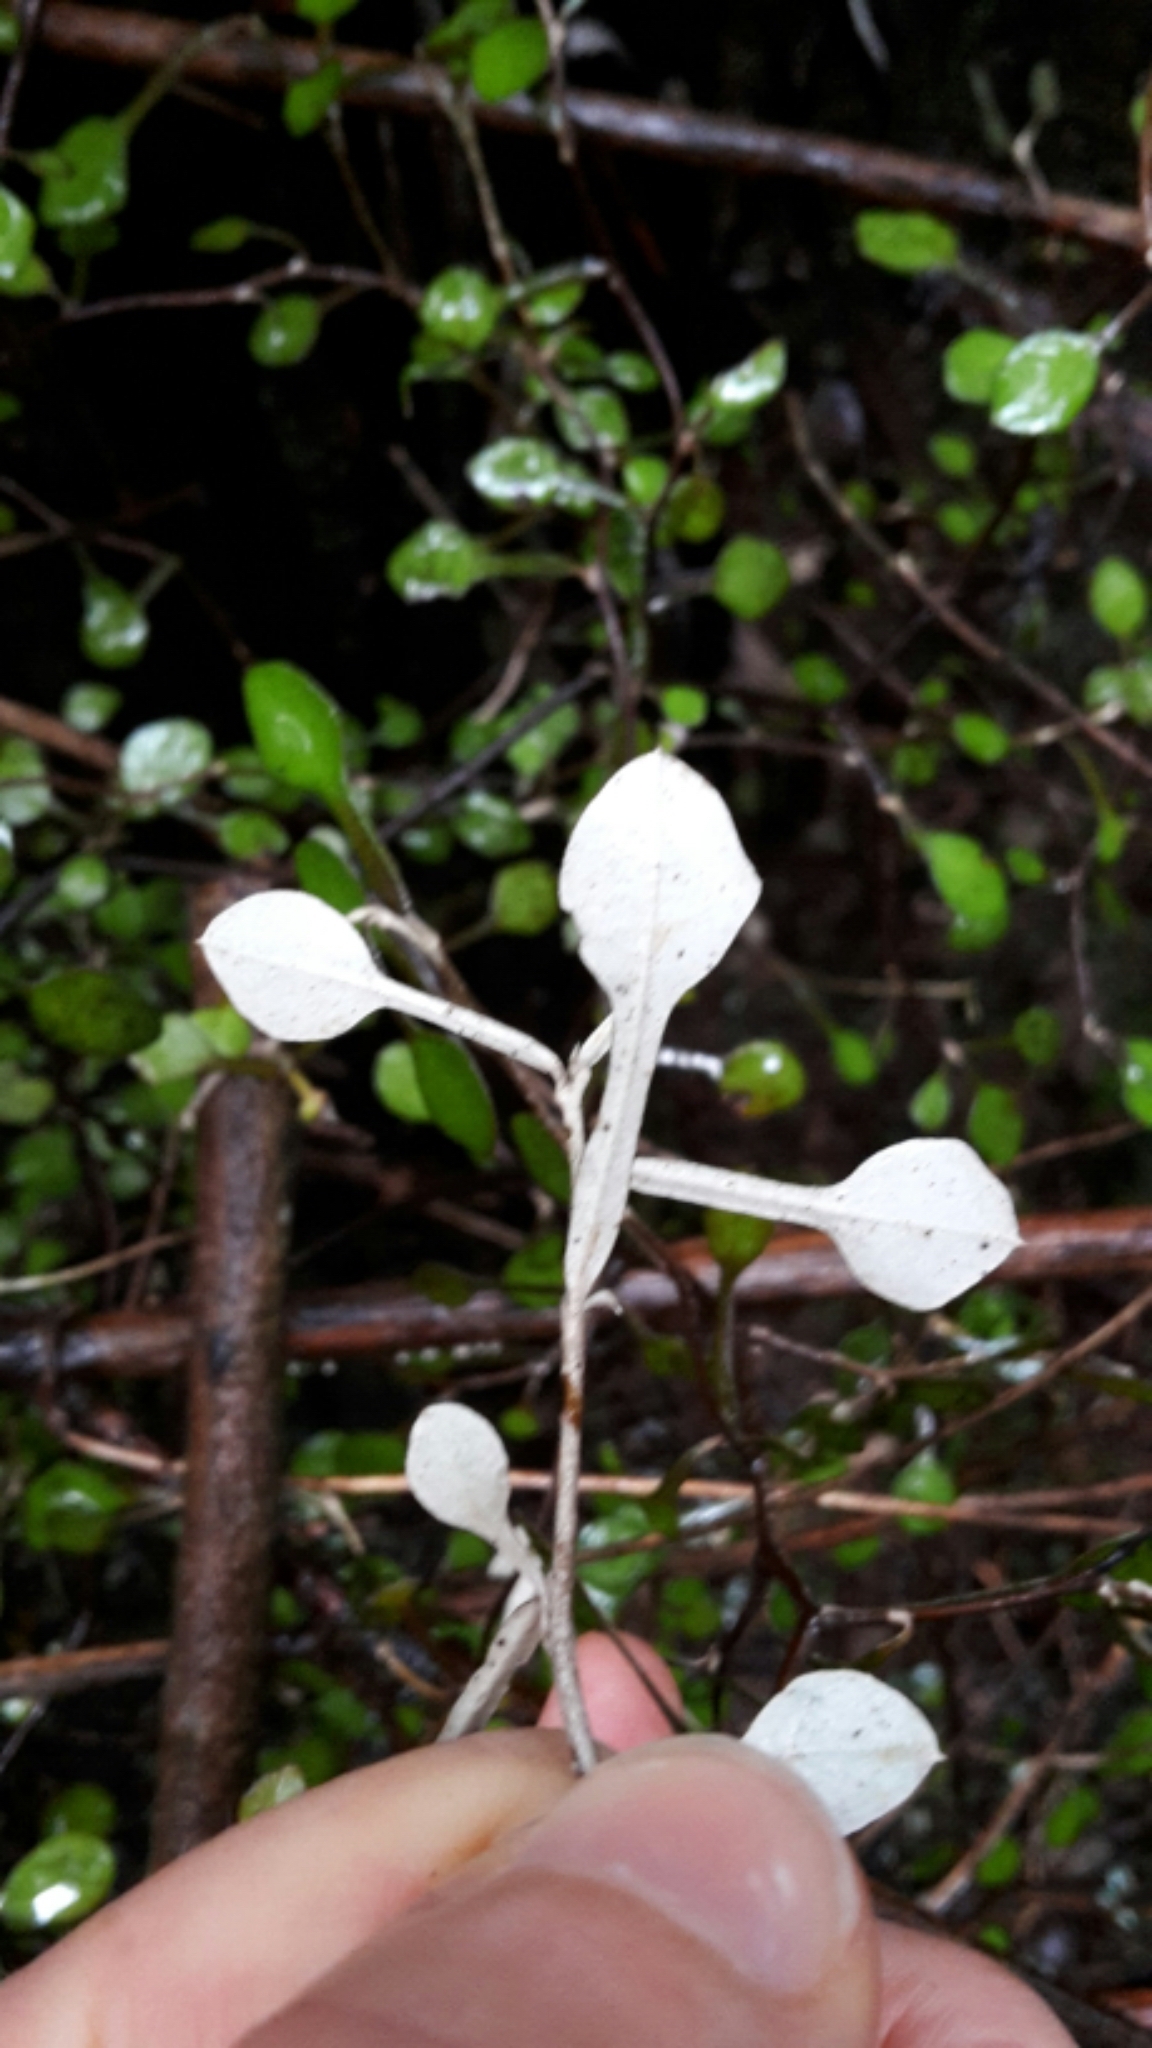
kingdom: Plantae
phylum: Tracheophyta
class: Magnoliopsida
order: Asterales
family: Argophyllaceae
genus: Corokia
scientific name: Corokia cotoneaster
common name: Wire nettingbush
